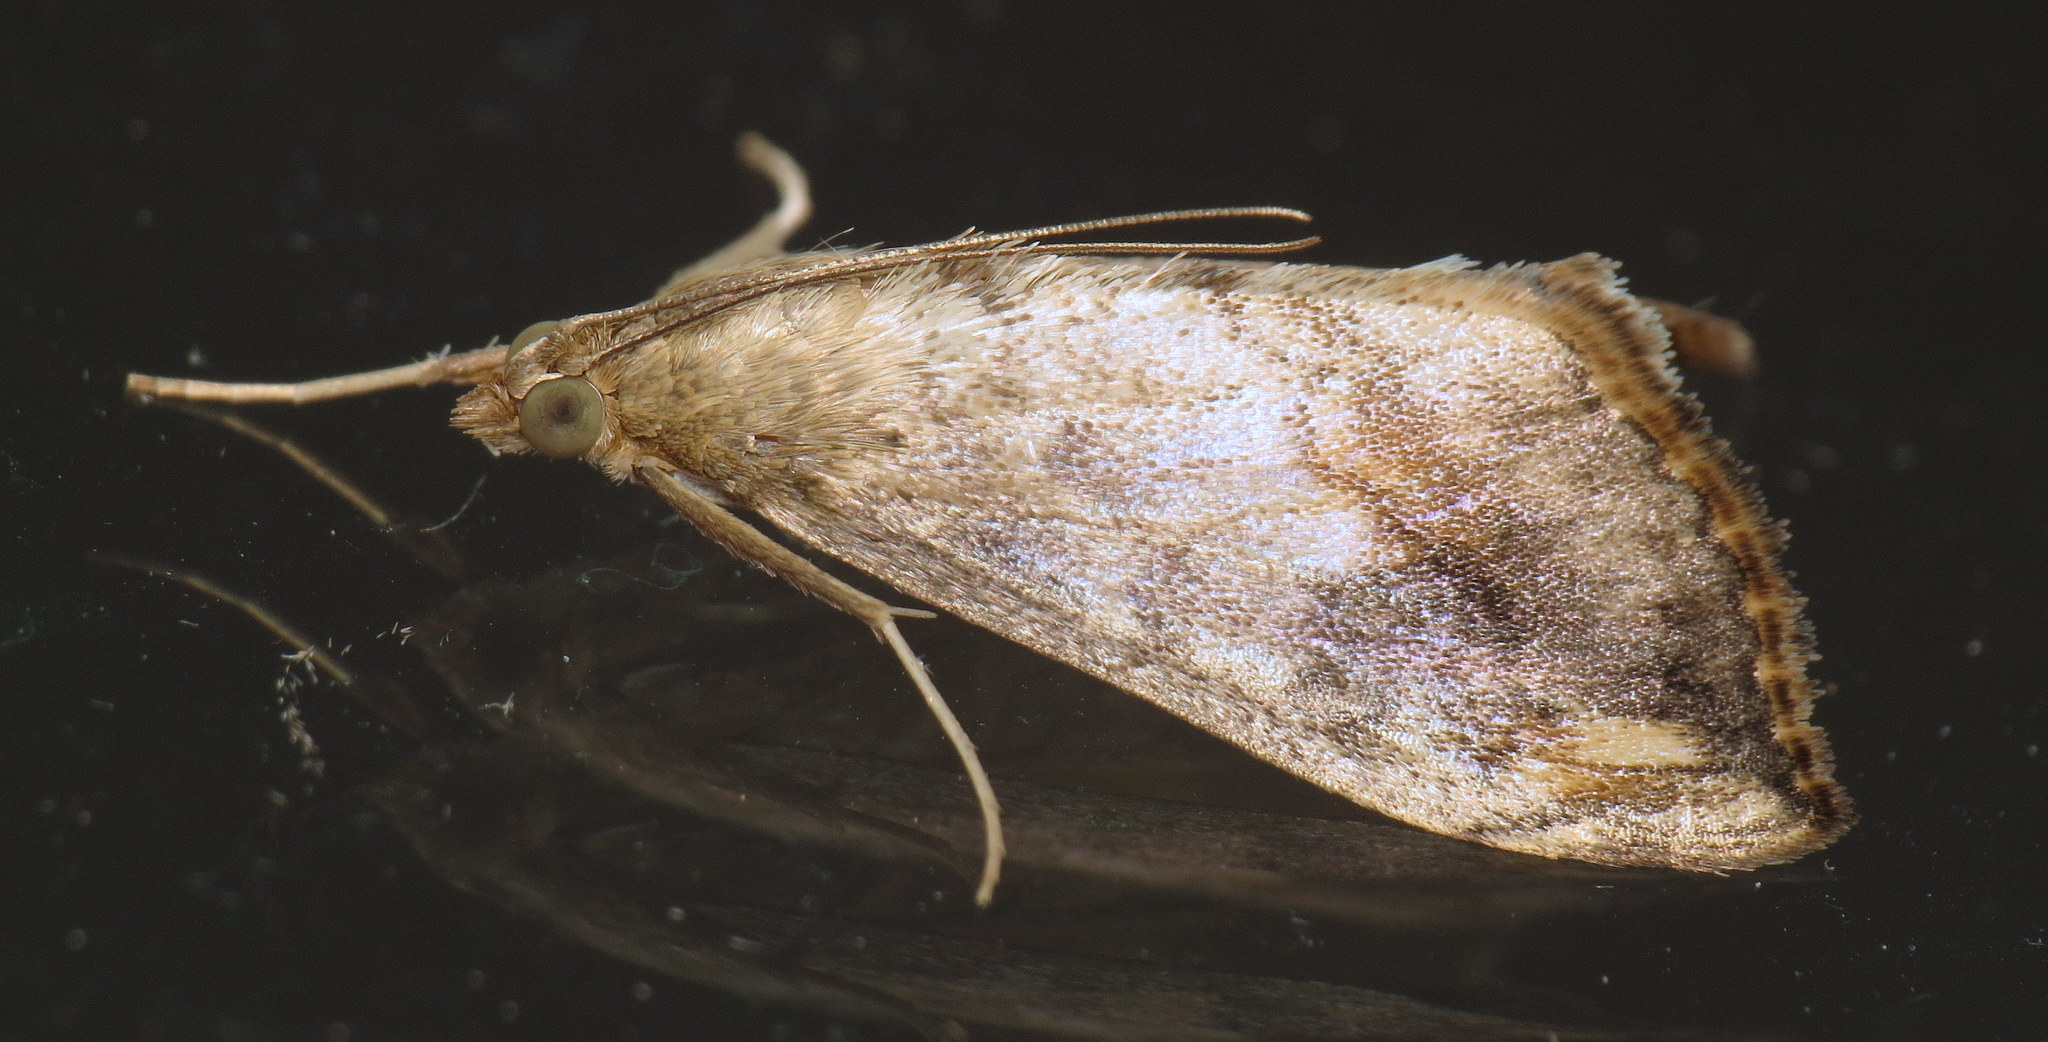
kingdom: Animalia
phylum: Arthropoda
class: Insecta
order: Lepidoptera
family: Crambidae
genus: Evergestis
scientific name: Evergestis rimosalis
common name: Cross-striped cabbageworm moth
